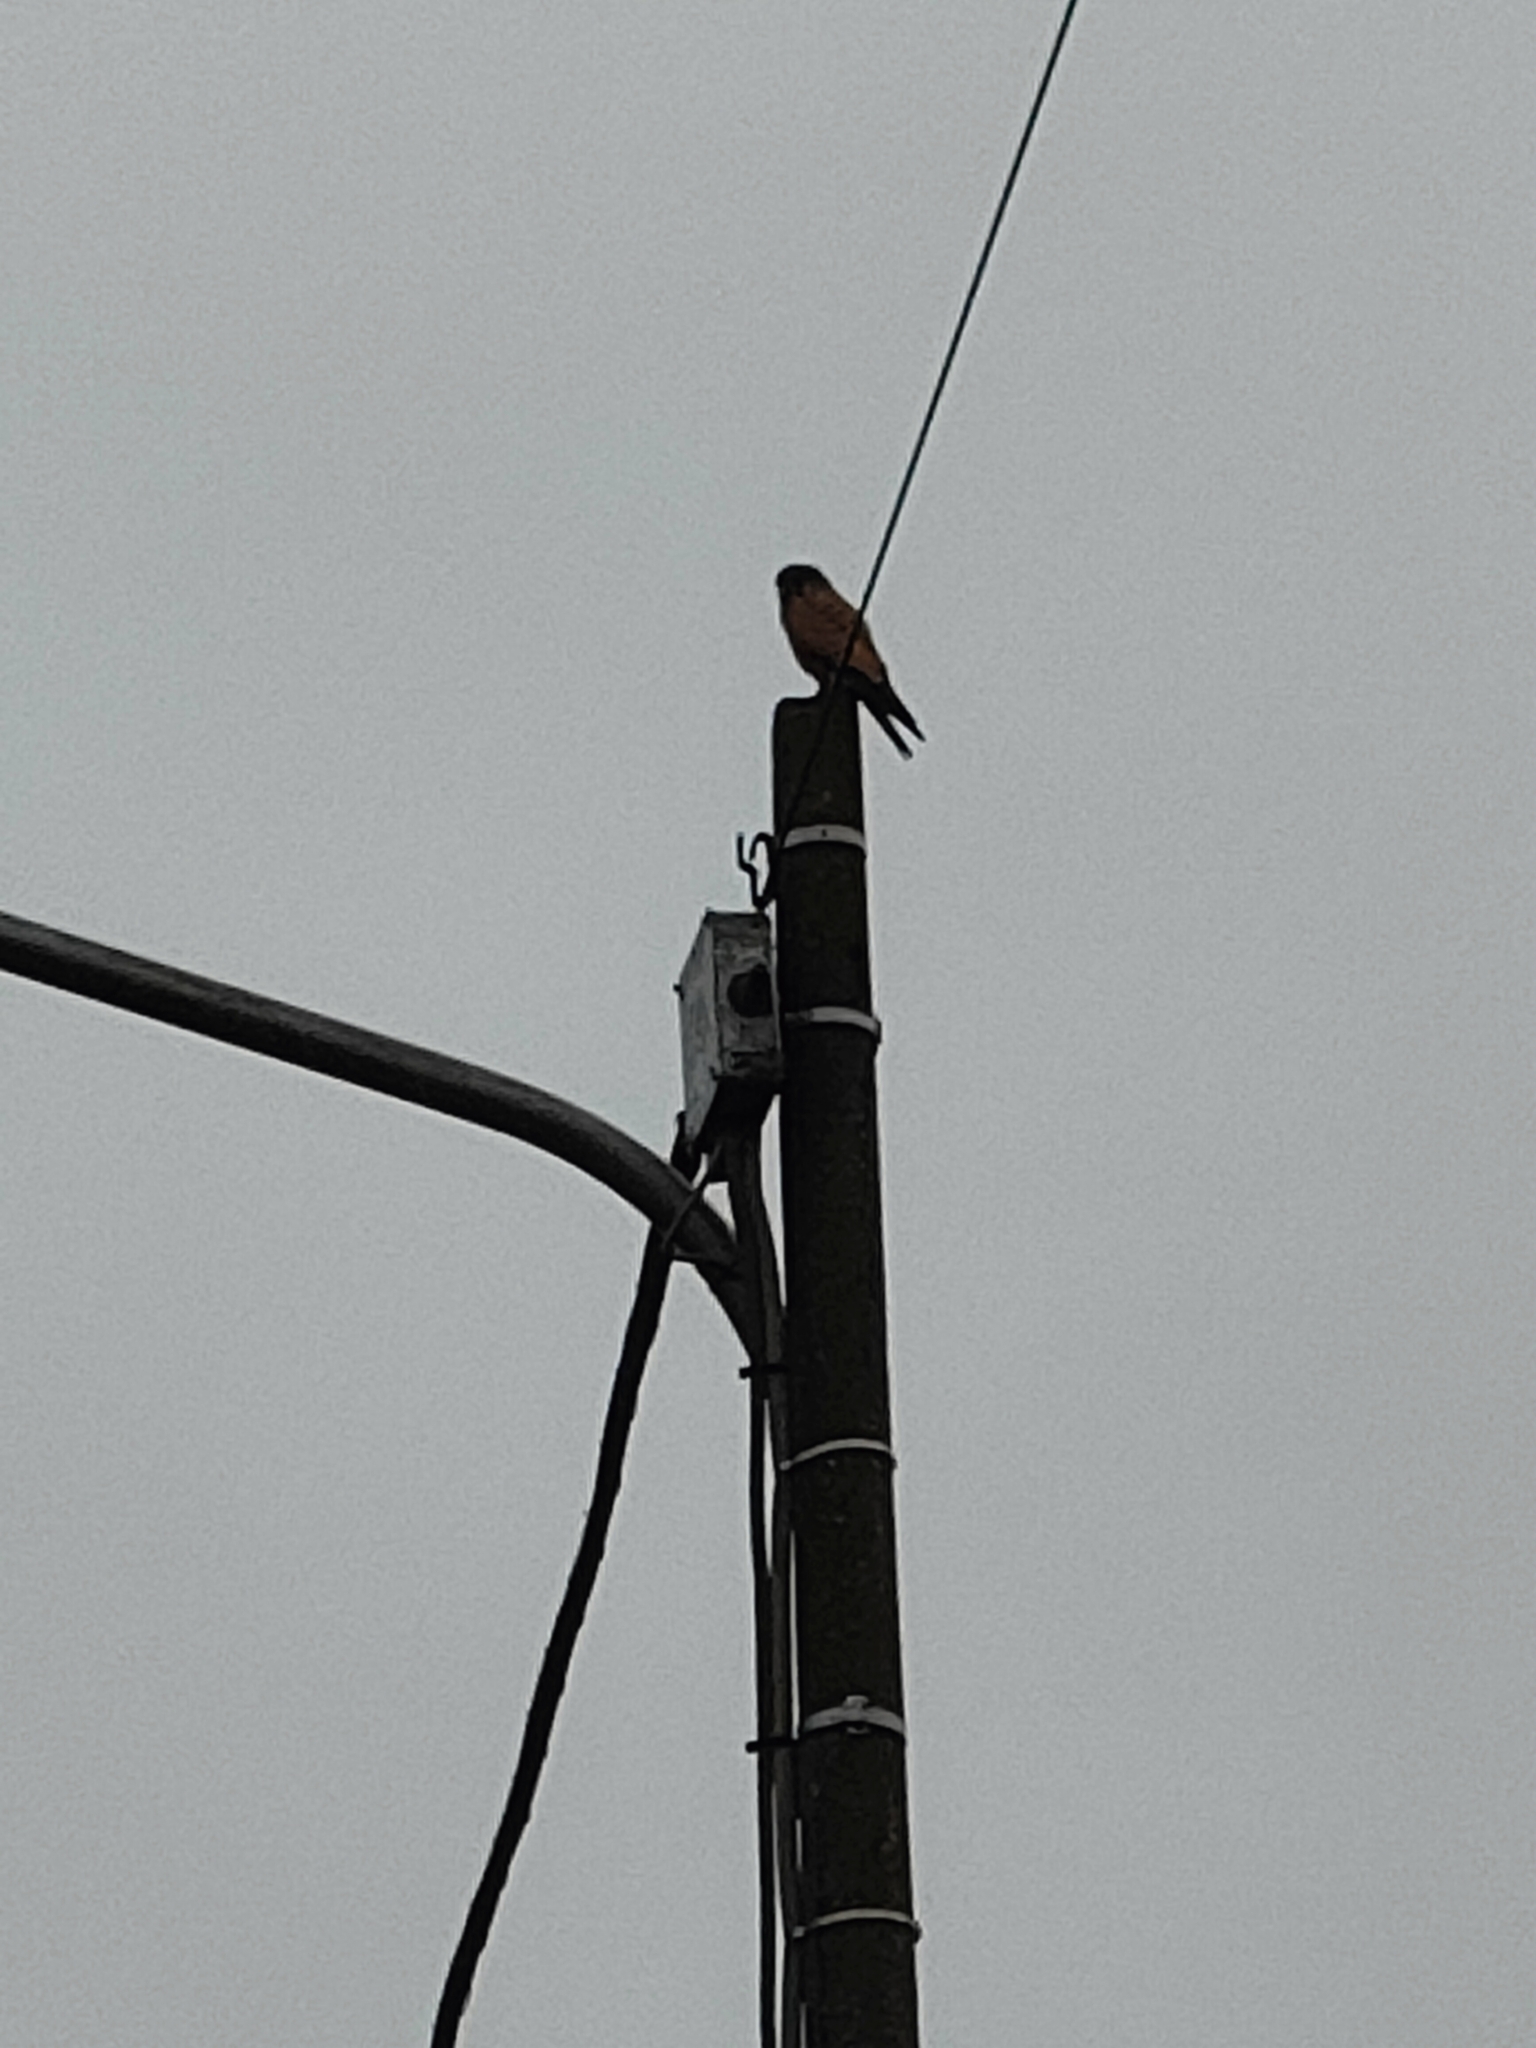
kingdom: Animalia
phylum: Chordata
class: Aves
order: Falconiformes
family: Falconidae
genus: Falco
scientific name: Falco tinnunculus
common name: Common kestrel
